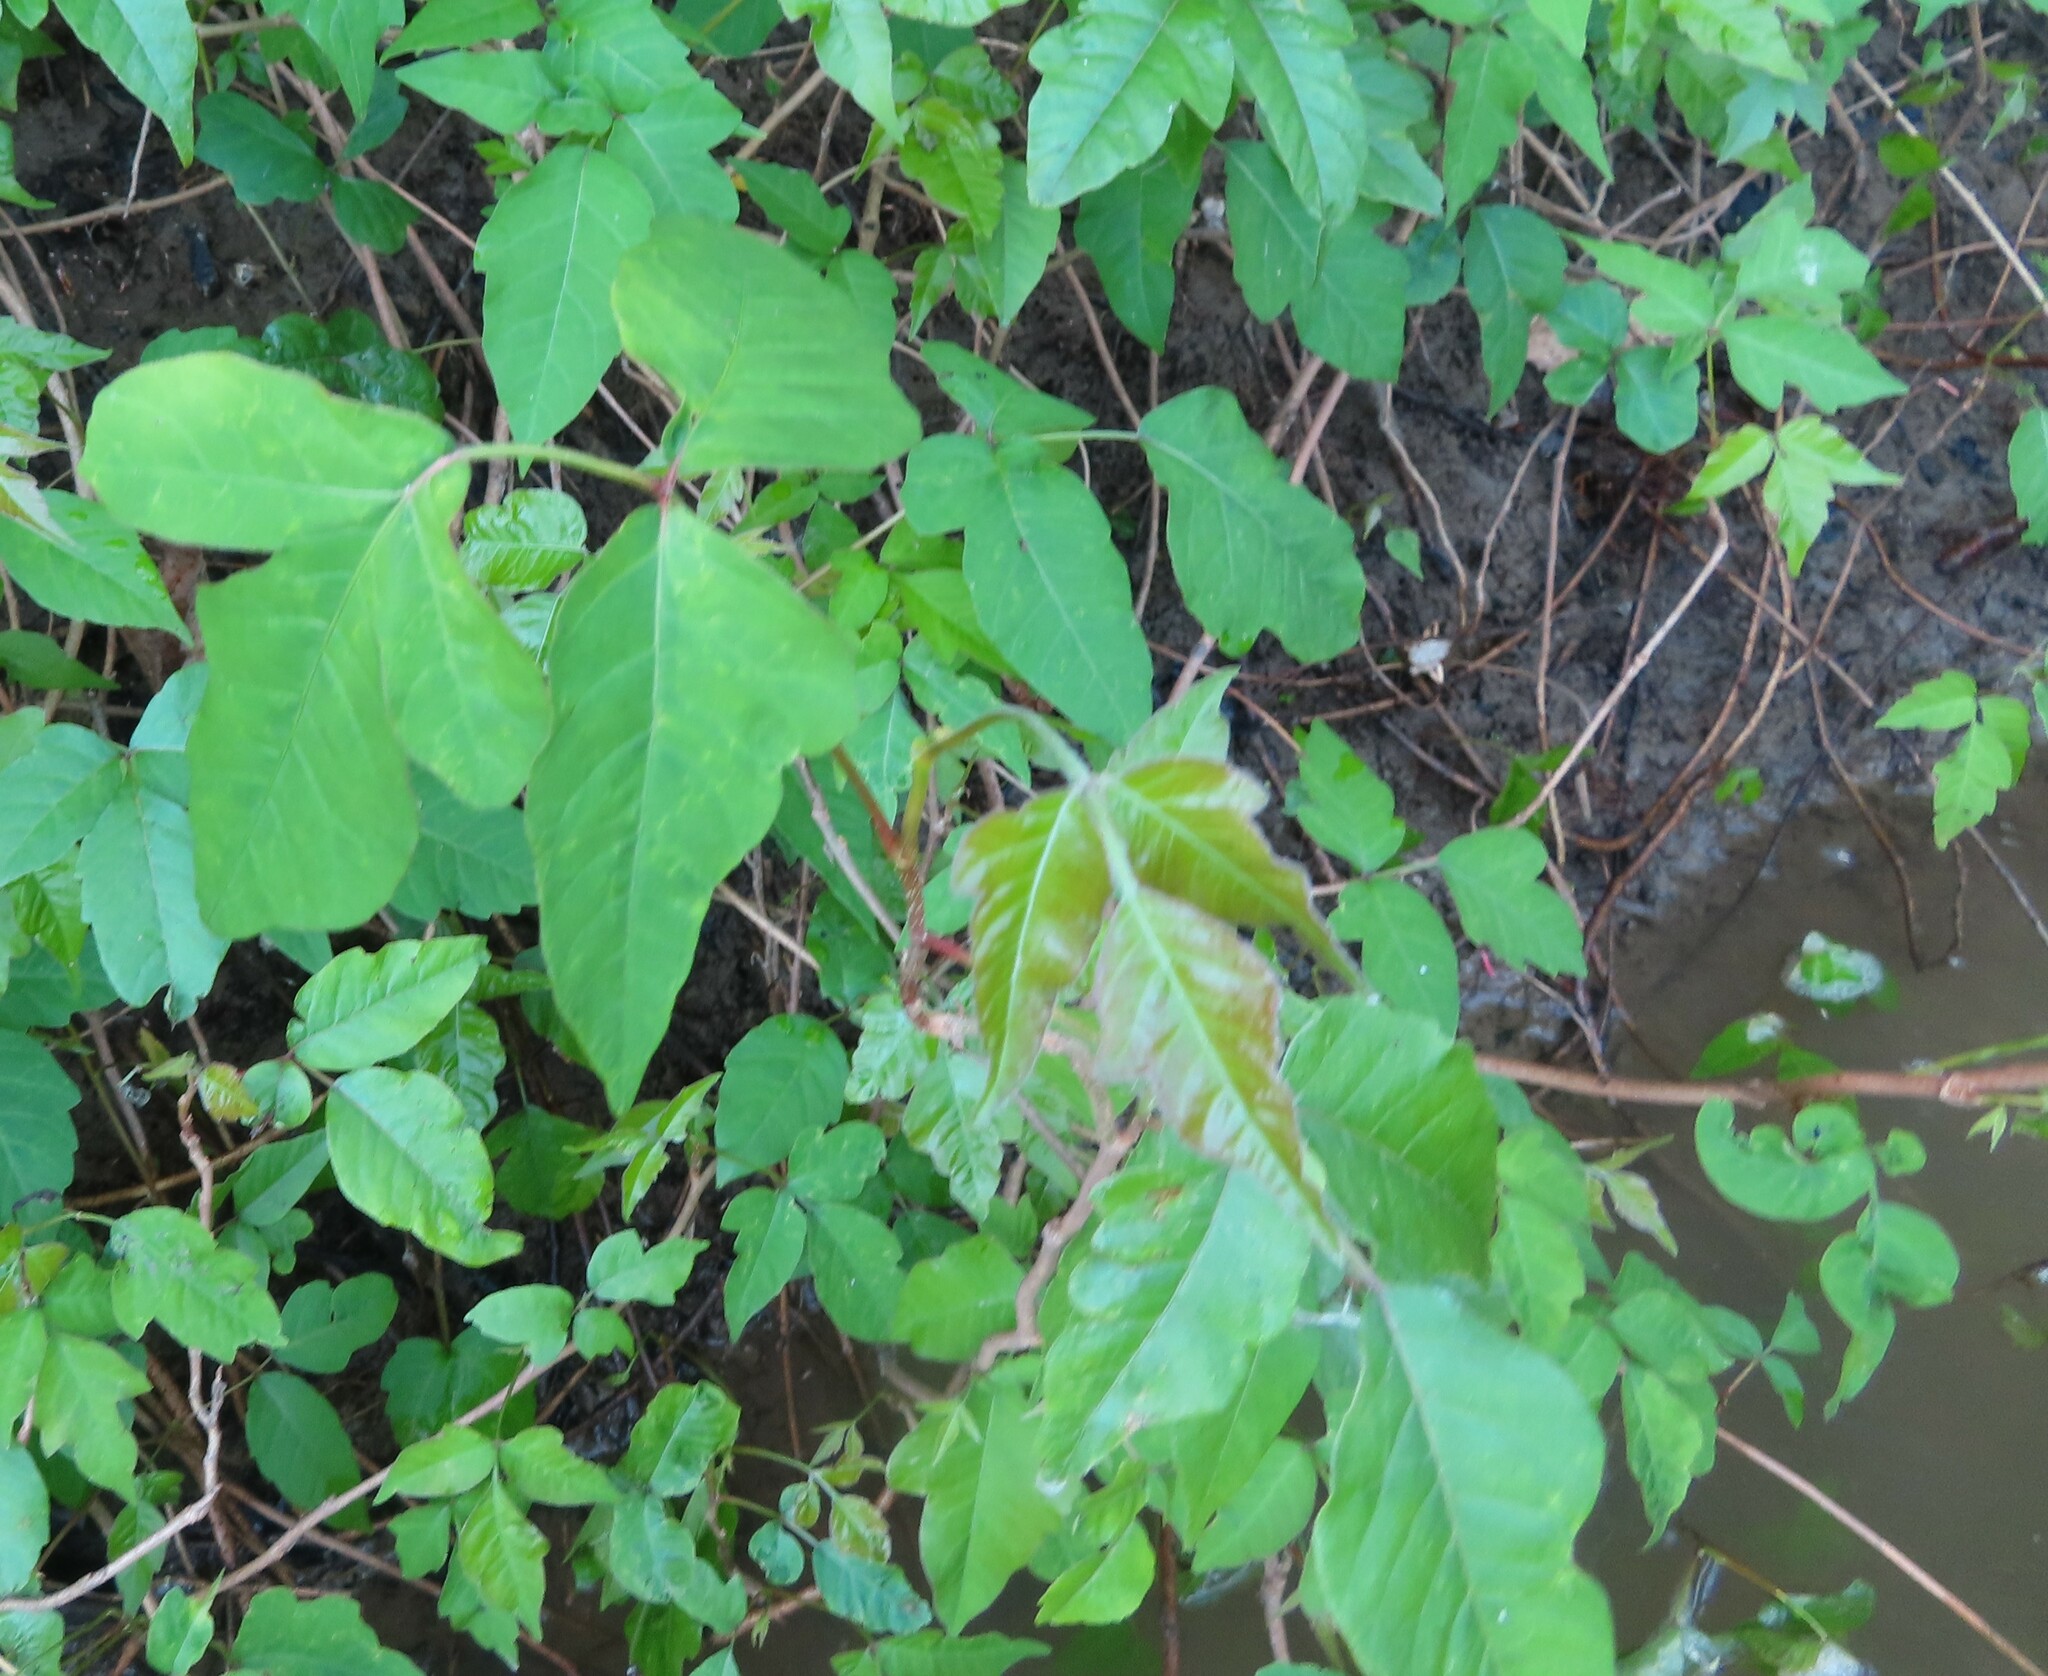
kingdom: Plantae
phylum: Tracheophyta
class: Magnoliopsida
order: Sapindales
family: Anacardiaceae
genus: Toxicodendron
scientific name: Toxicodendron radicans
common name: Poison ivy
